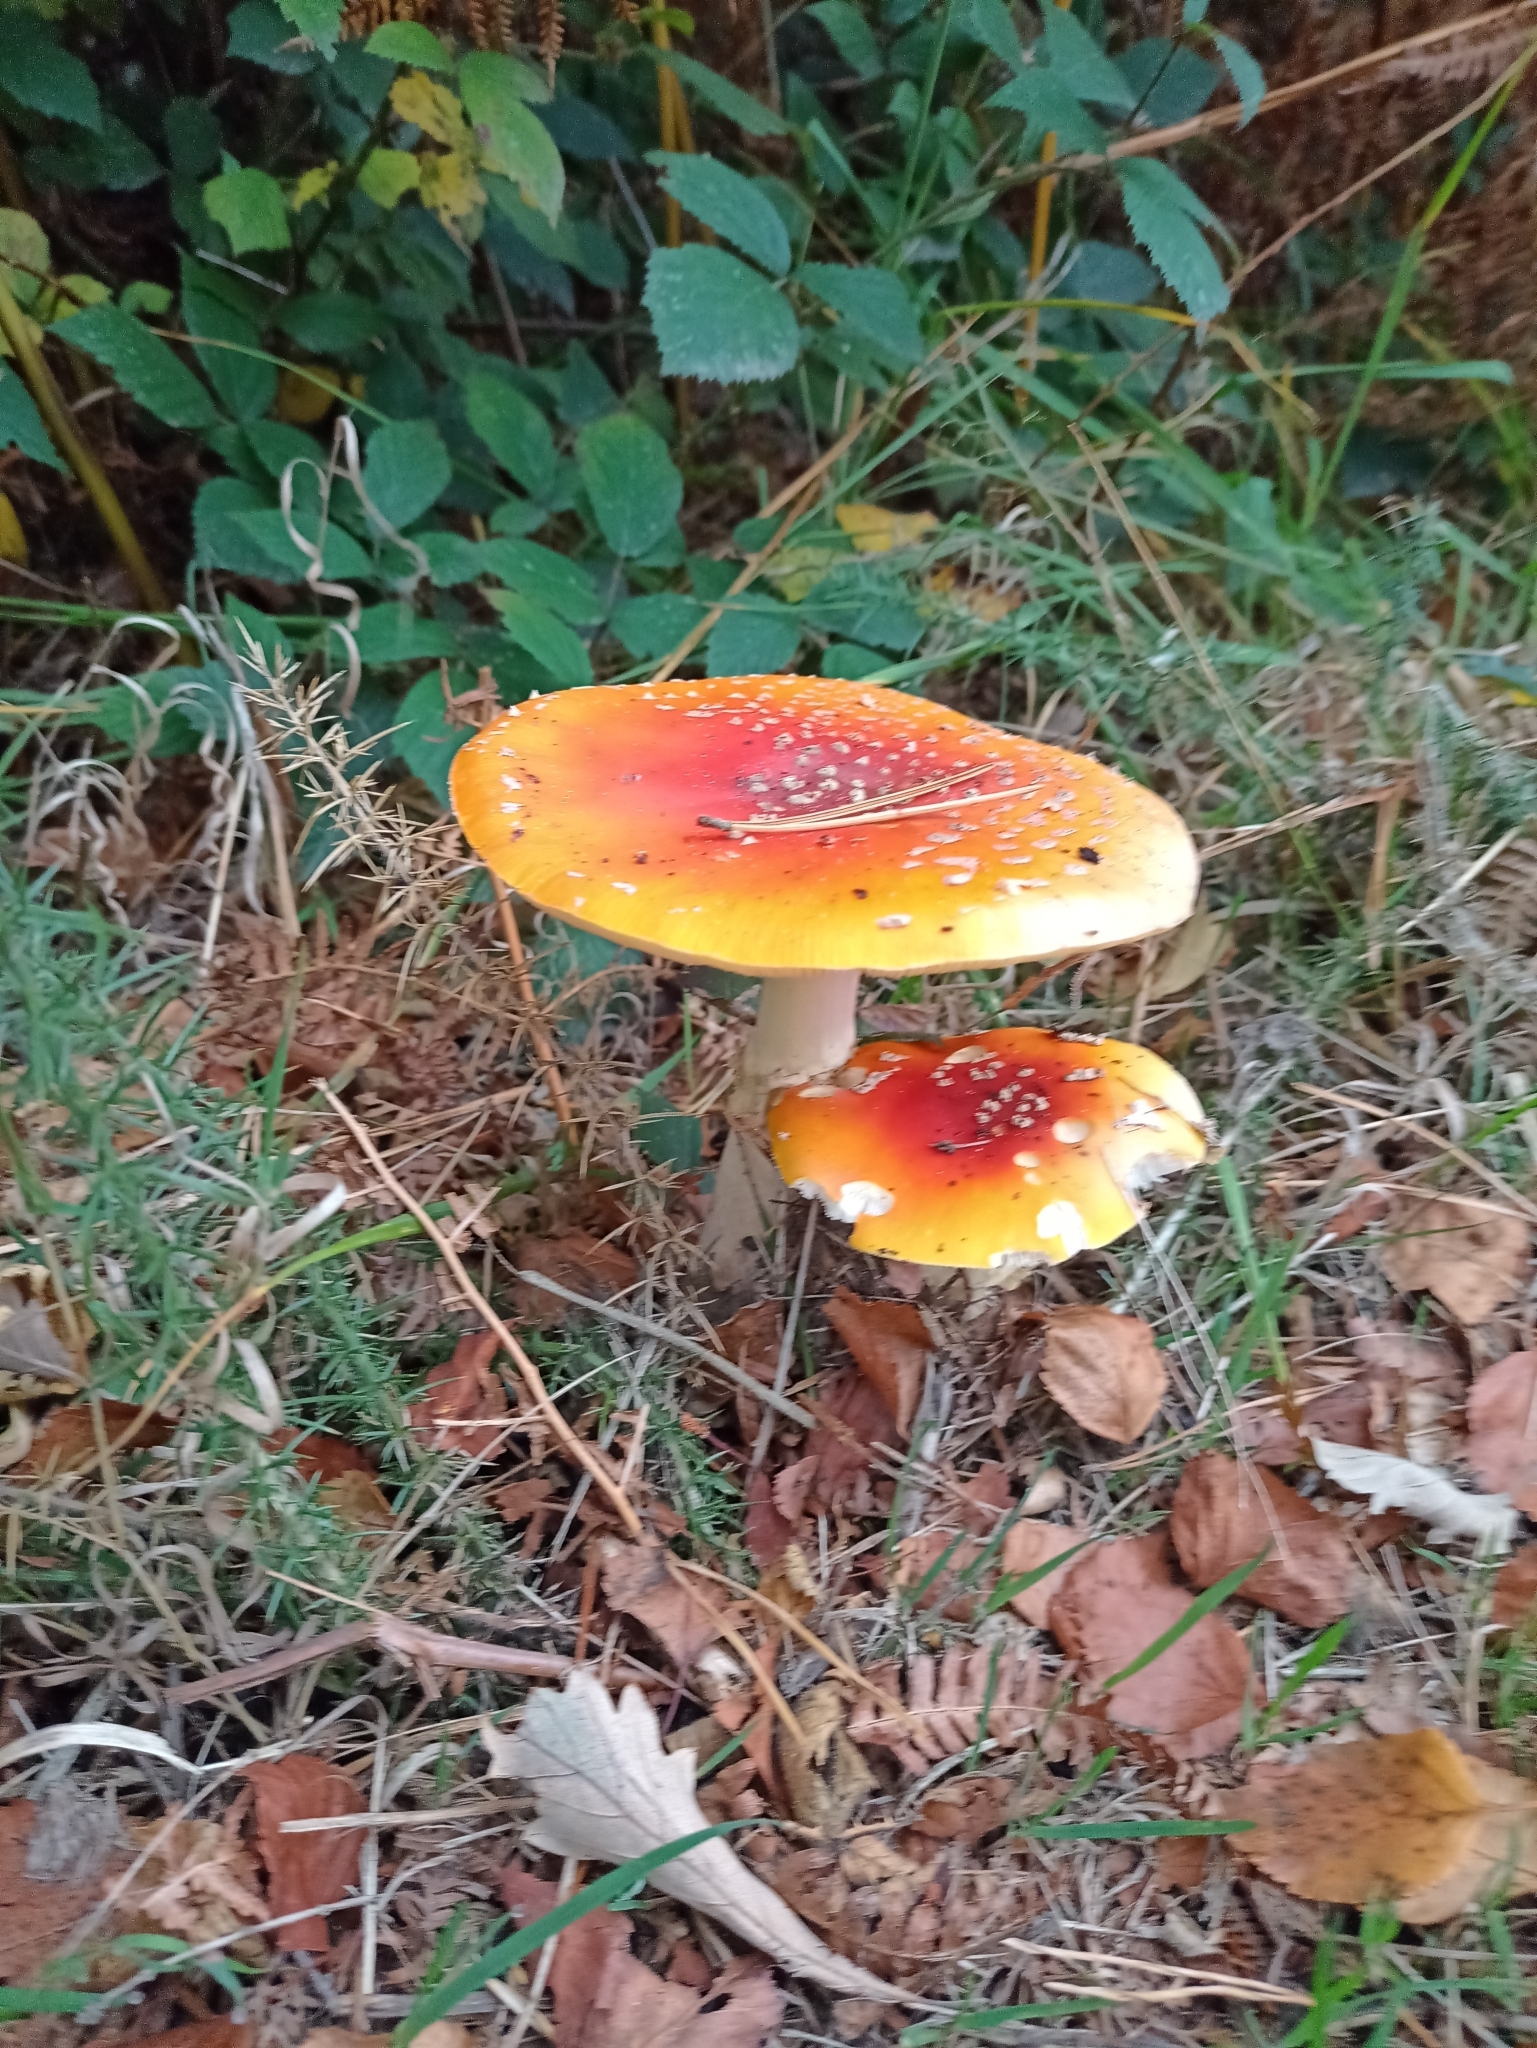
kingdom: Fungi
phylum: Basidiomycota
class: Agaricomycetes
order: Agaricales
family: Amanitaceae
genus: Amanita
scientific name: Amanita muscaria
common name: Fly agaric
